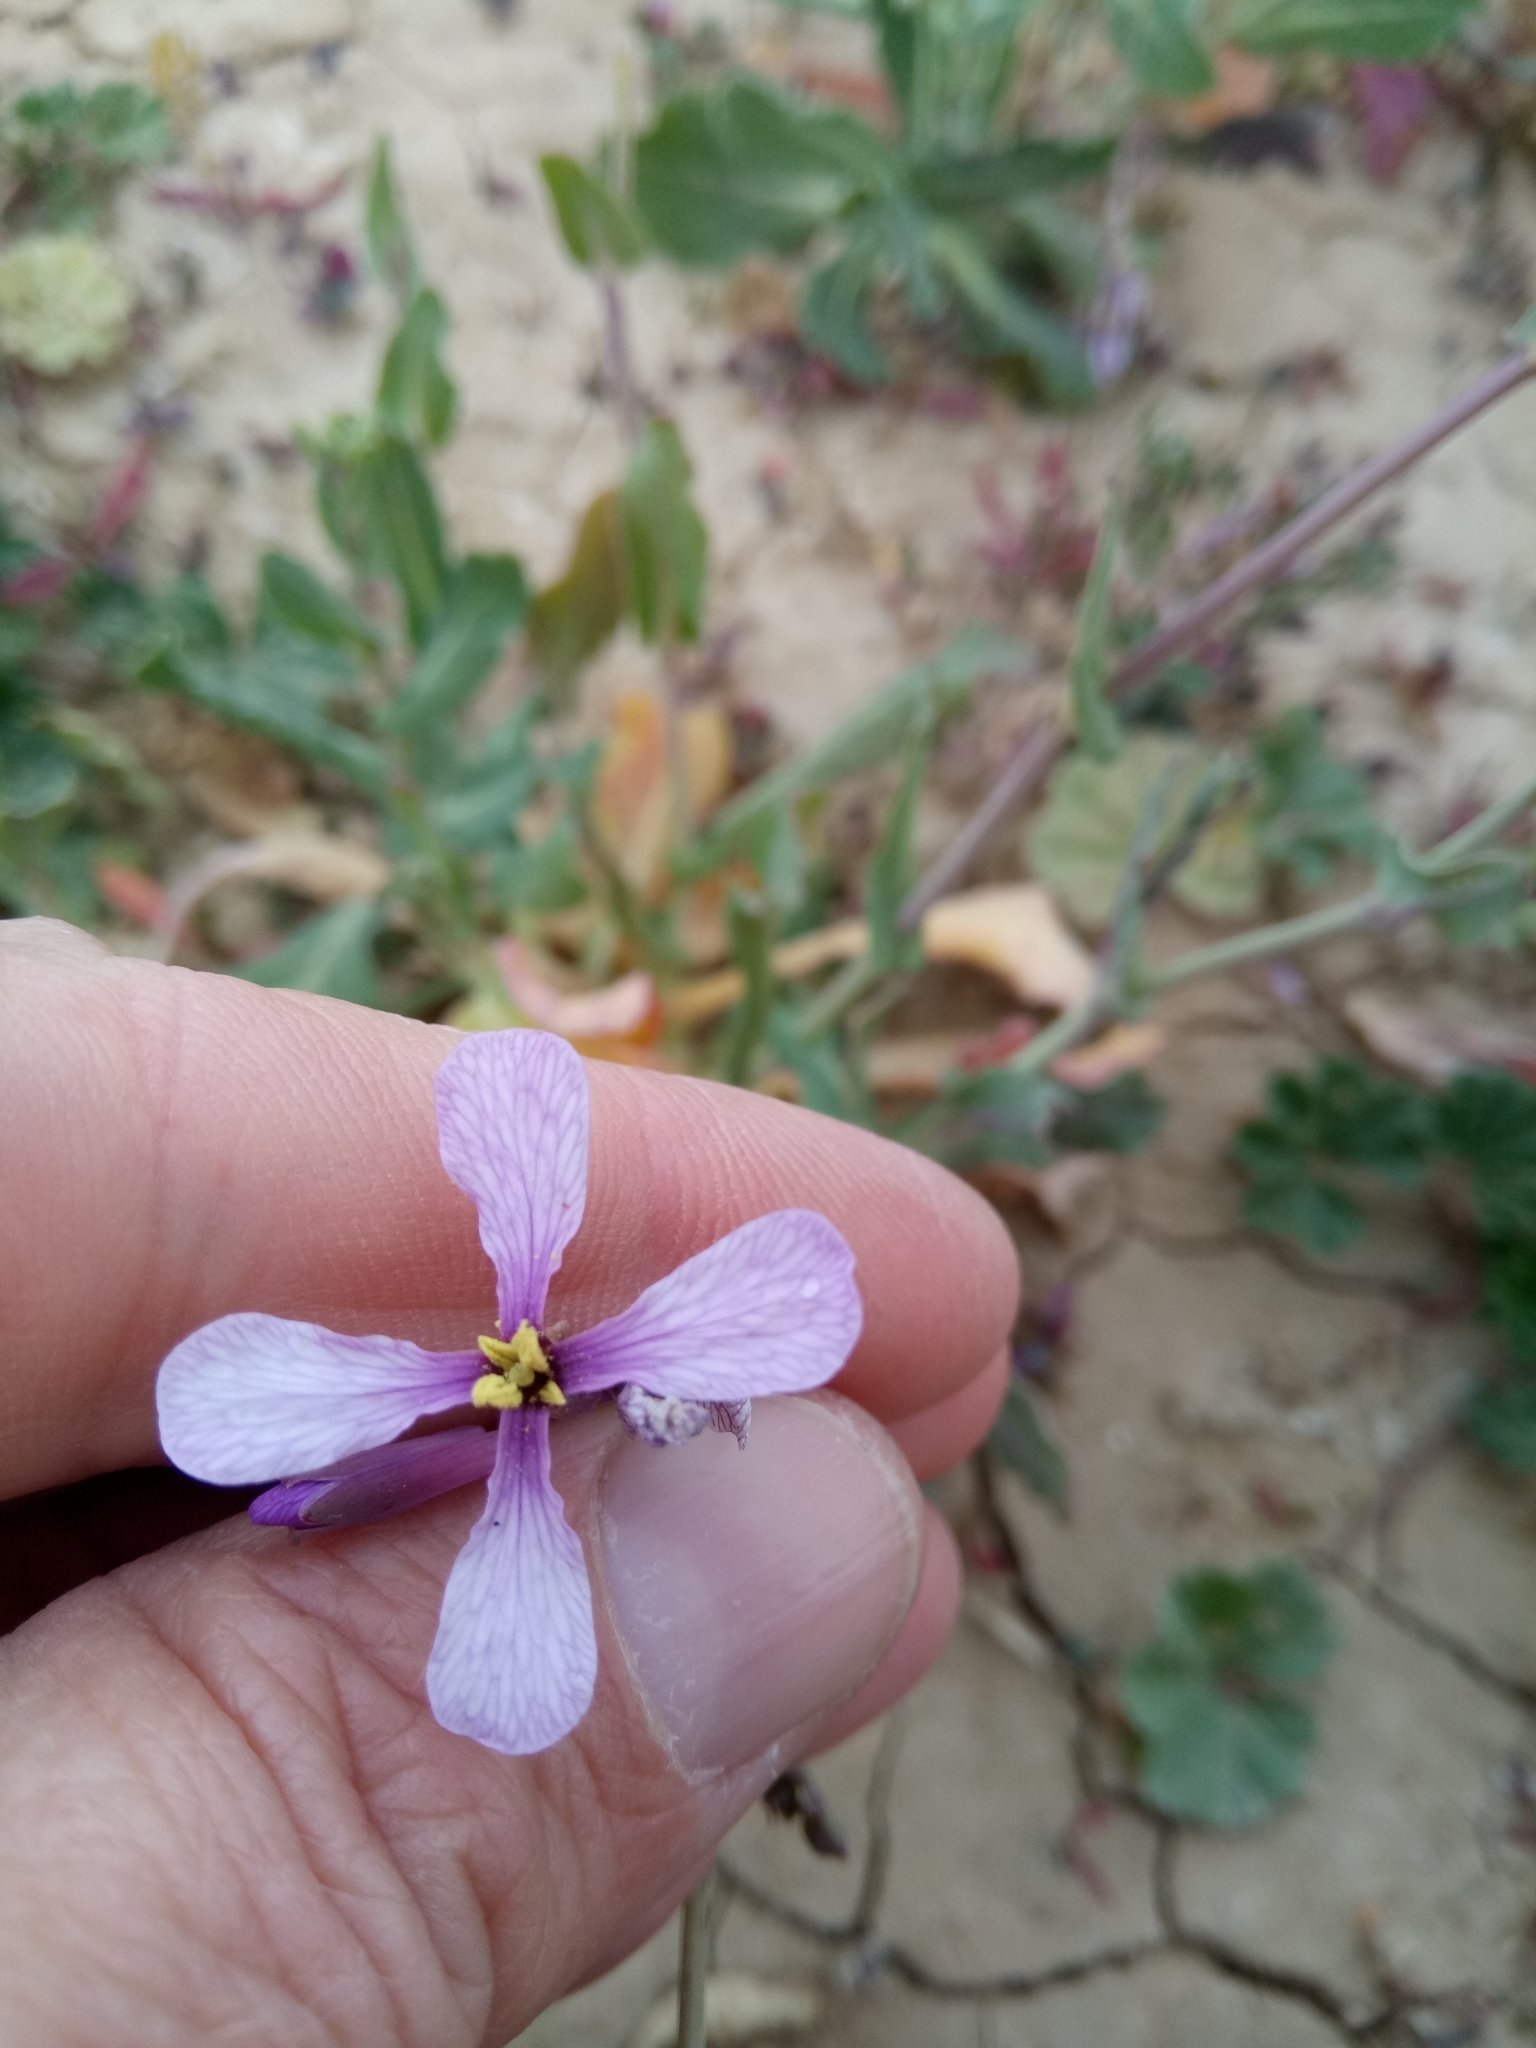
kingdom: Plantae
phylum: Tracheophyta
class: Magnoliopsida
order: Brassicales
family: Brassicaceae
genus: Moricandia
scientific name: Moricandia suffruticosa
